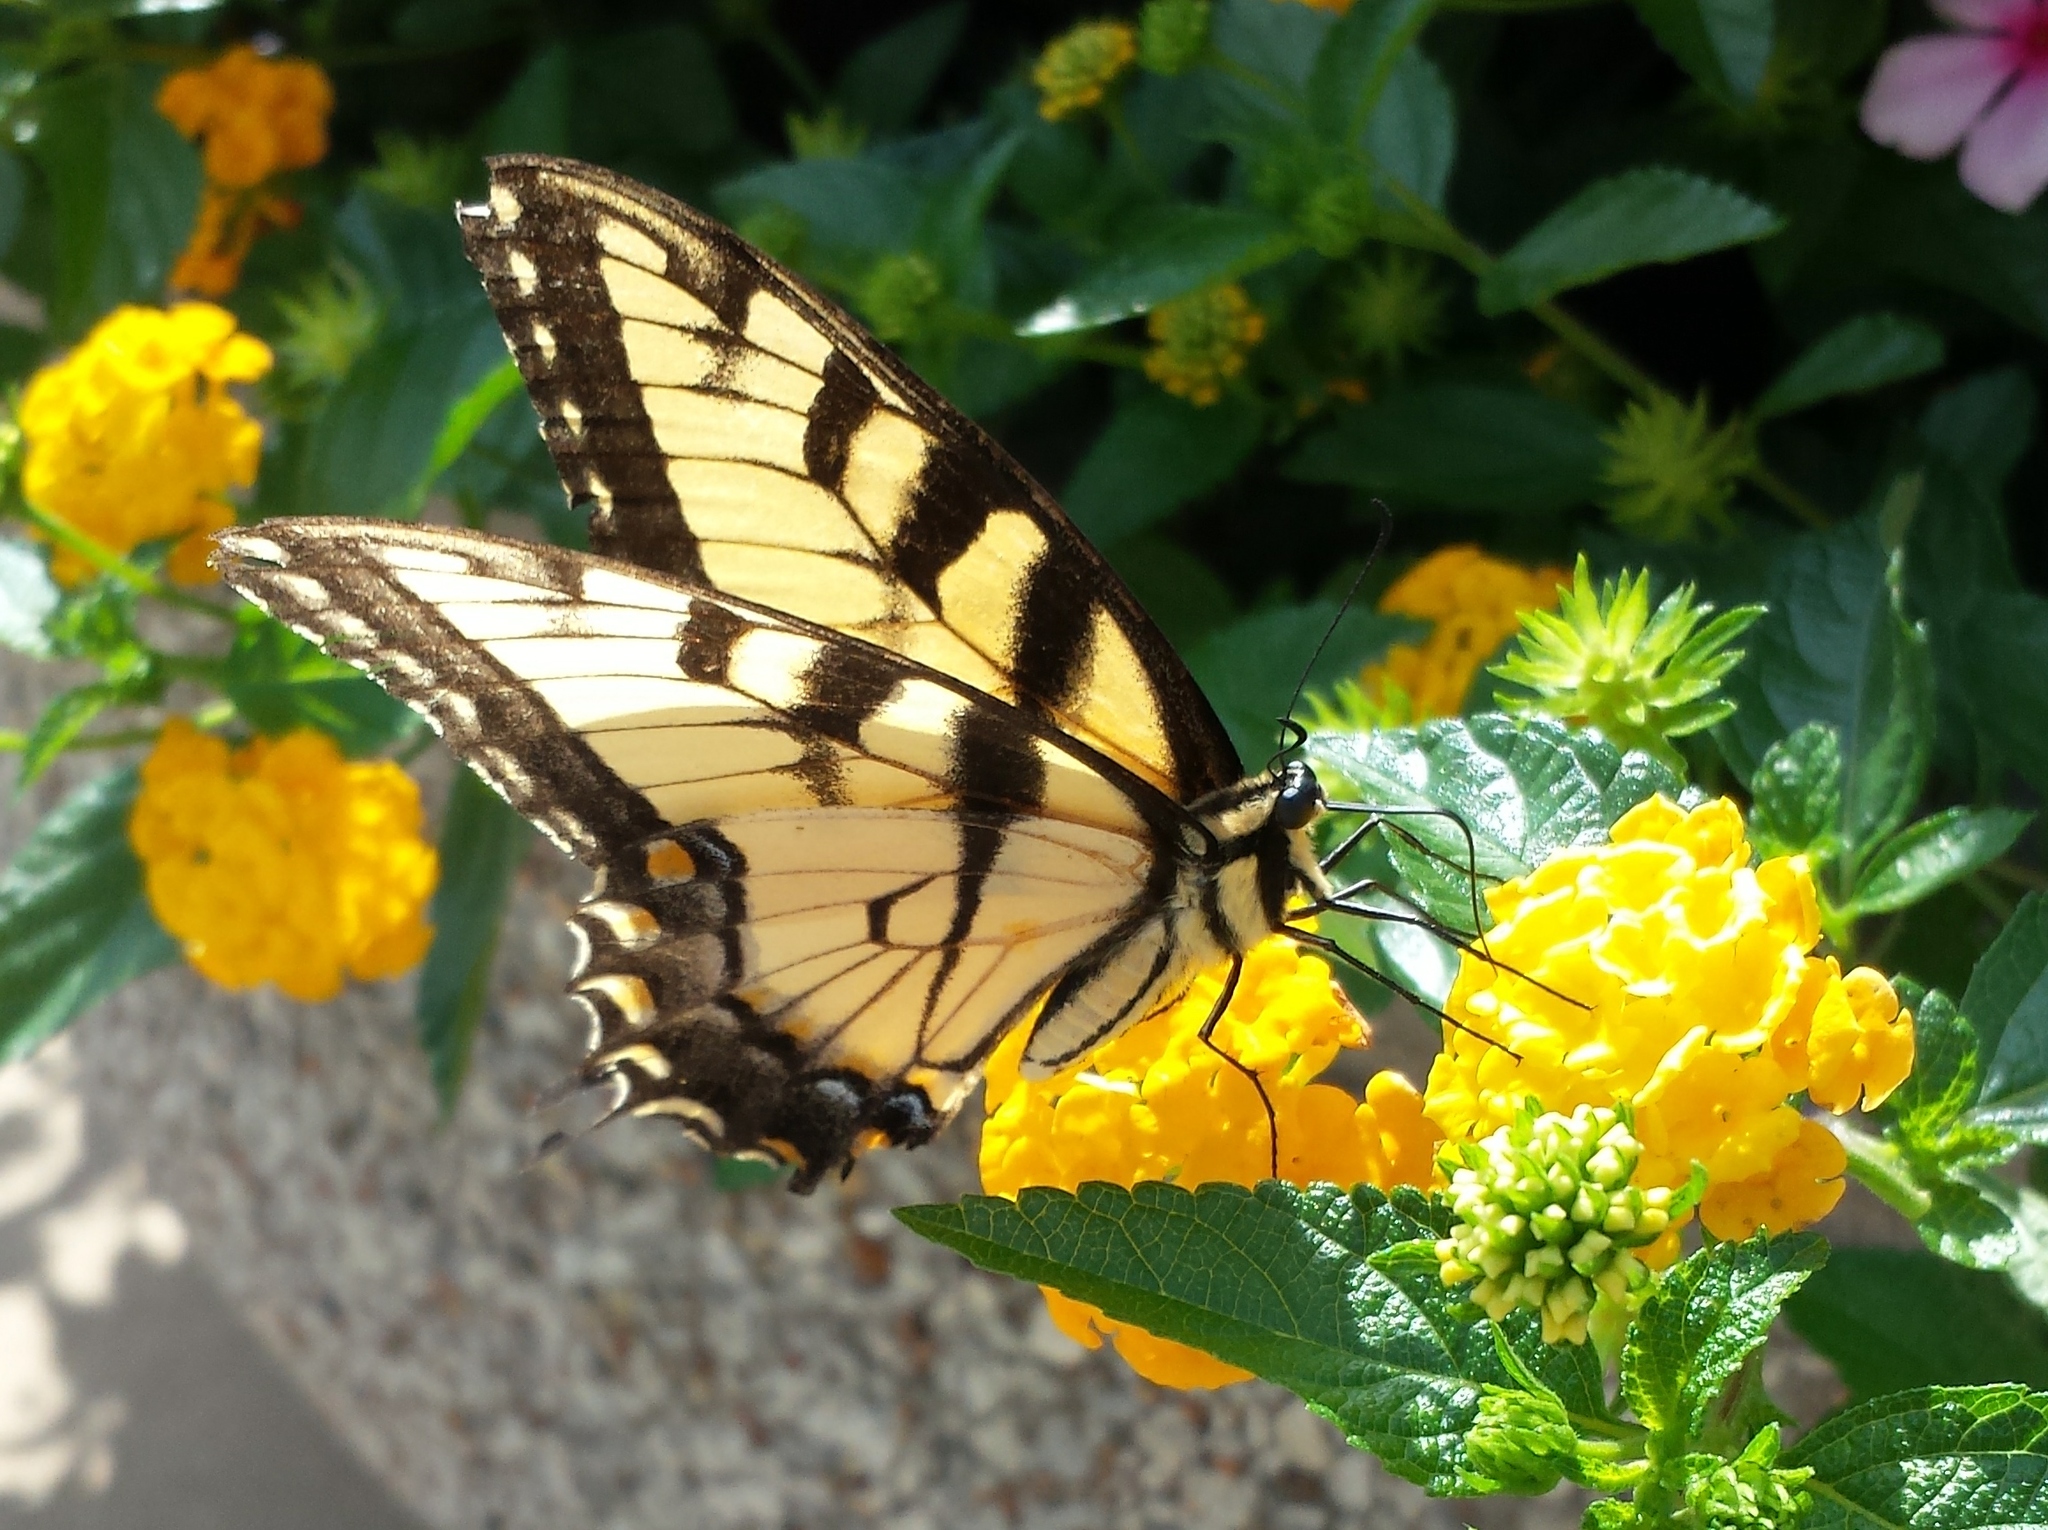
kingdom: Animalia
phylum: Arthropoda
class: Insecta
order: Lepidoptera
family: Papilionidae
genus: Papilio
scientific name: Papilio glaucus
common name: Tiger swallowtail
